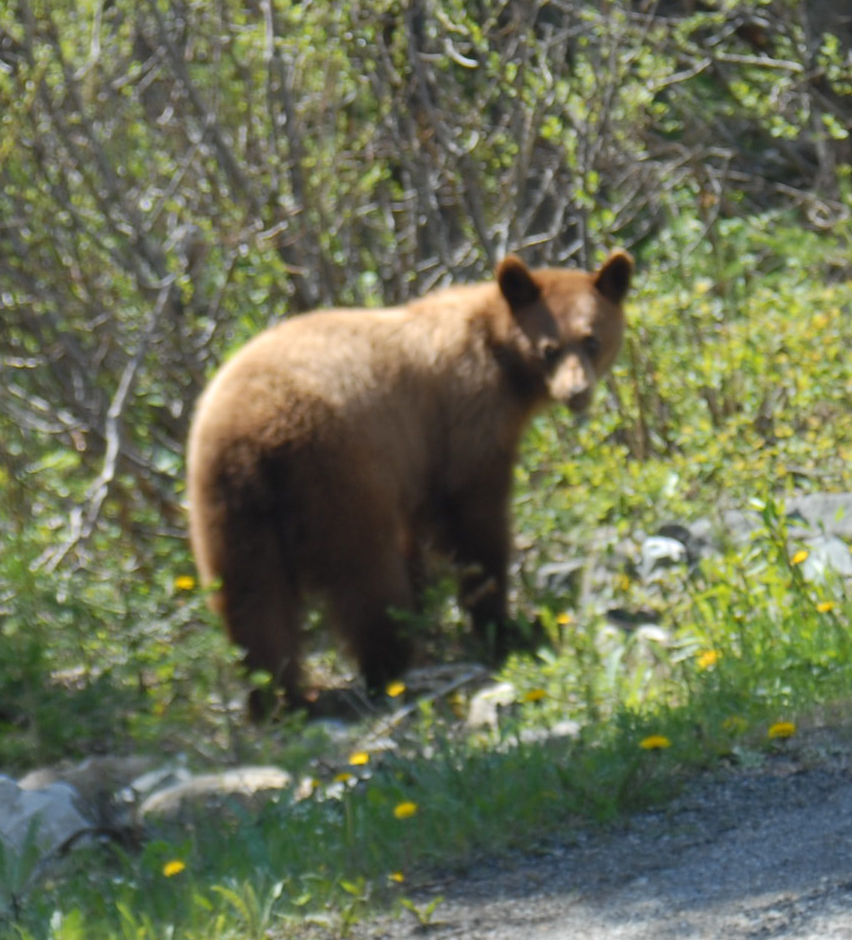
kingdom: Animalia
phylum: Chordata
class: Mammalia
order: Carnivora
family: Ursidae
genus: Ursus
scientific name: Ursus americanus
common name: American black bear
